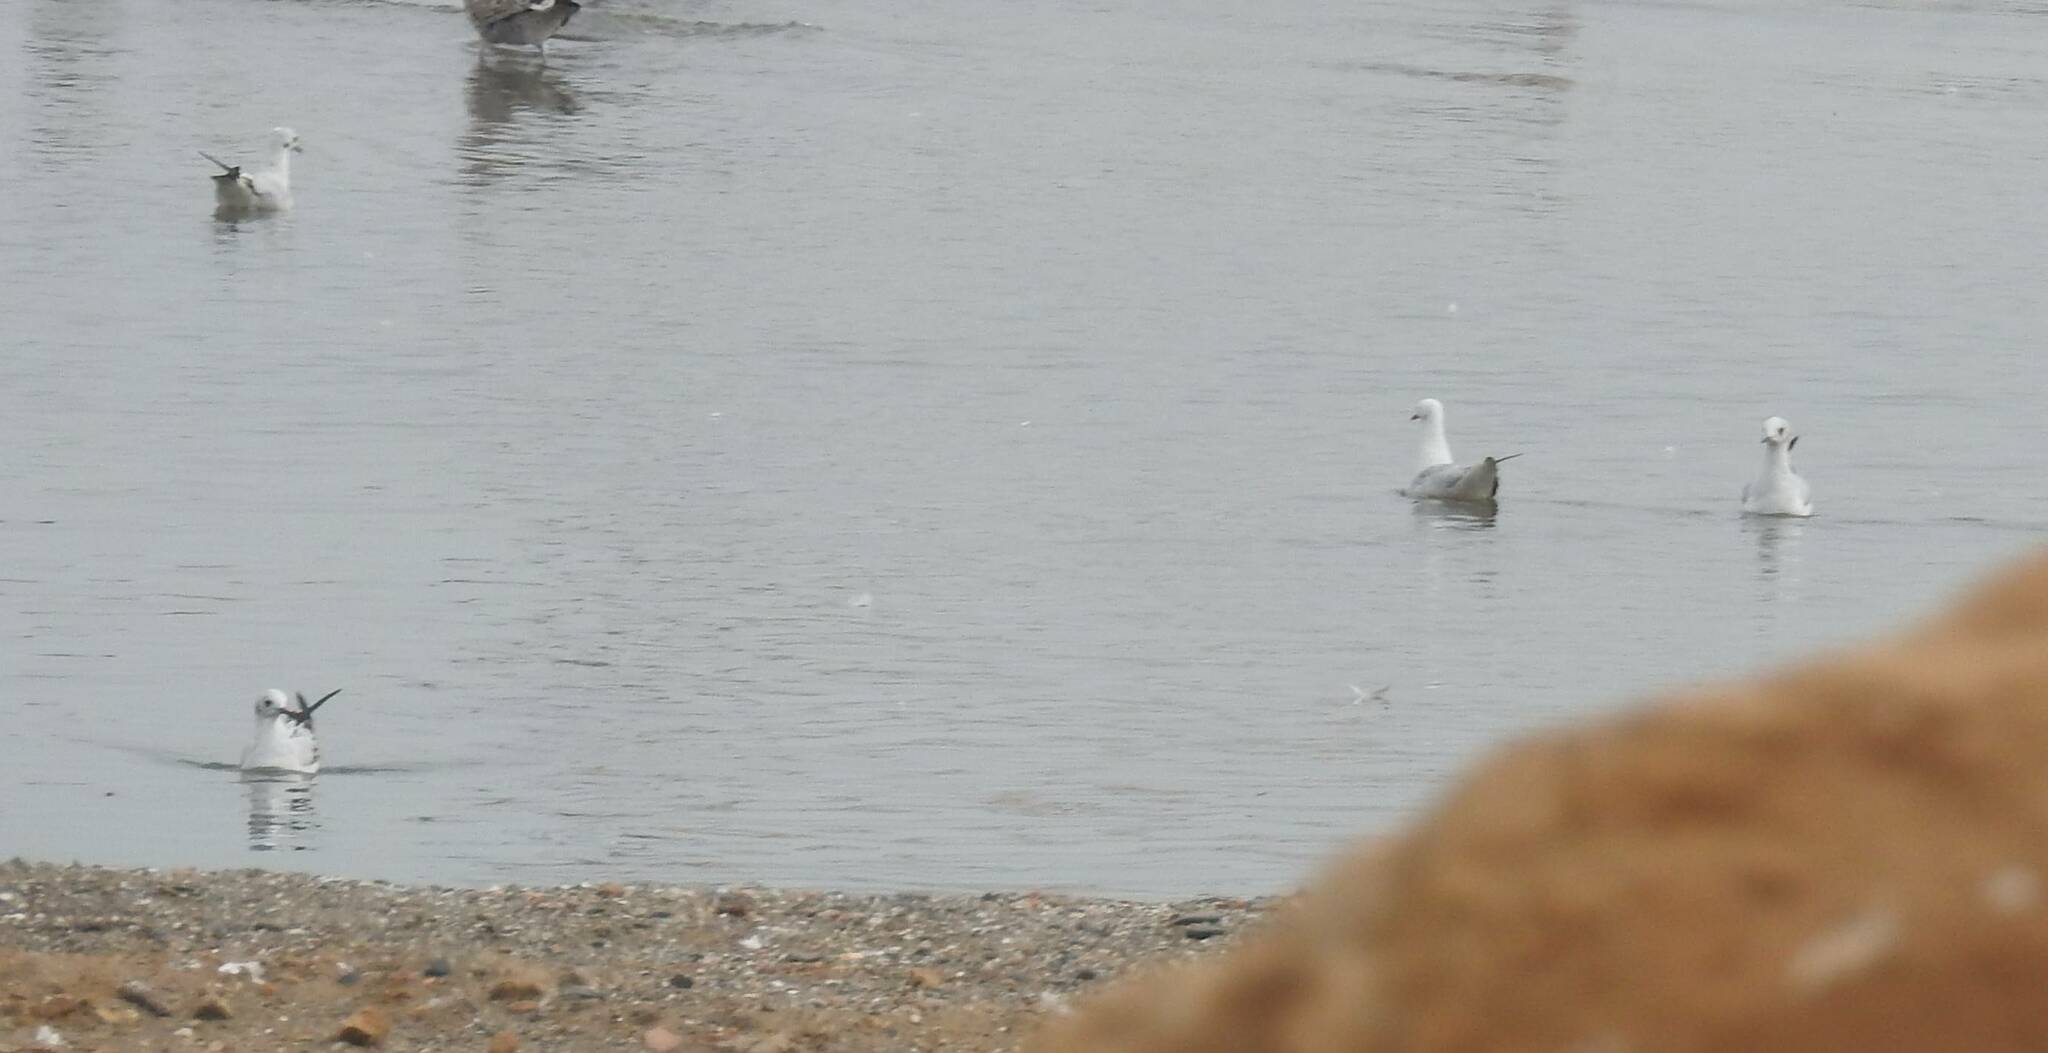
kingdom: Animalia
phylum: Chordata
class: Aves
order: Charadriiformes
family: Laridae
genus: Chroicocephalus
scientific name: Chroicocephalus ridibundus
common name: Black-headed gull
